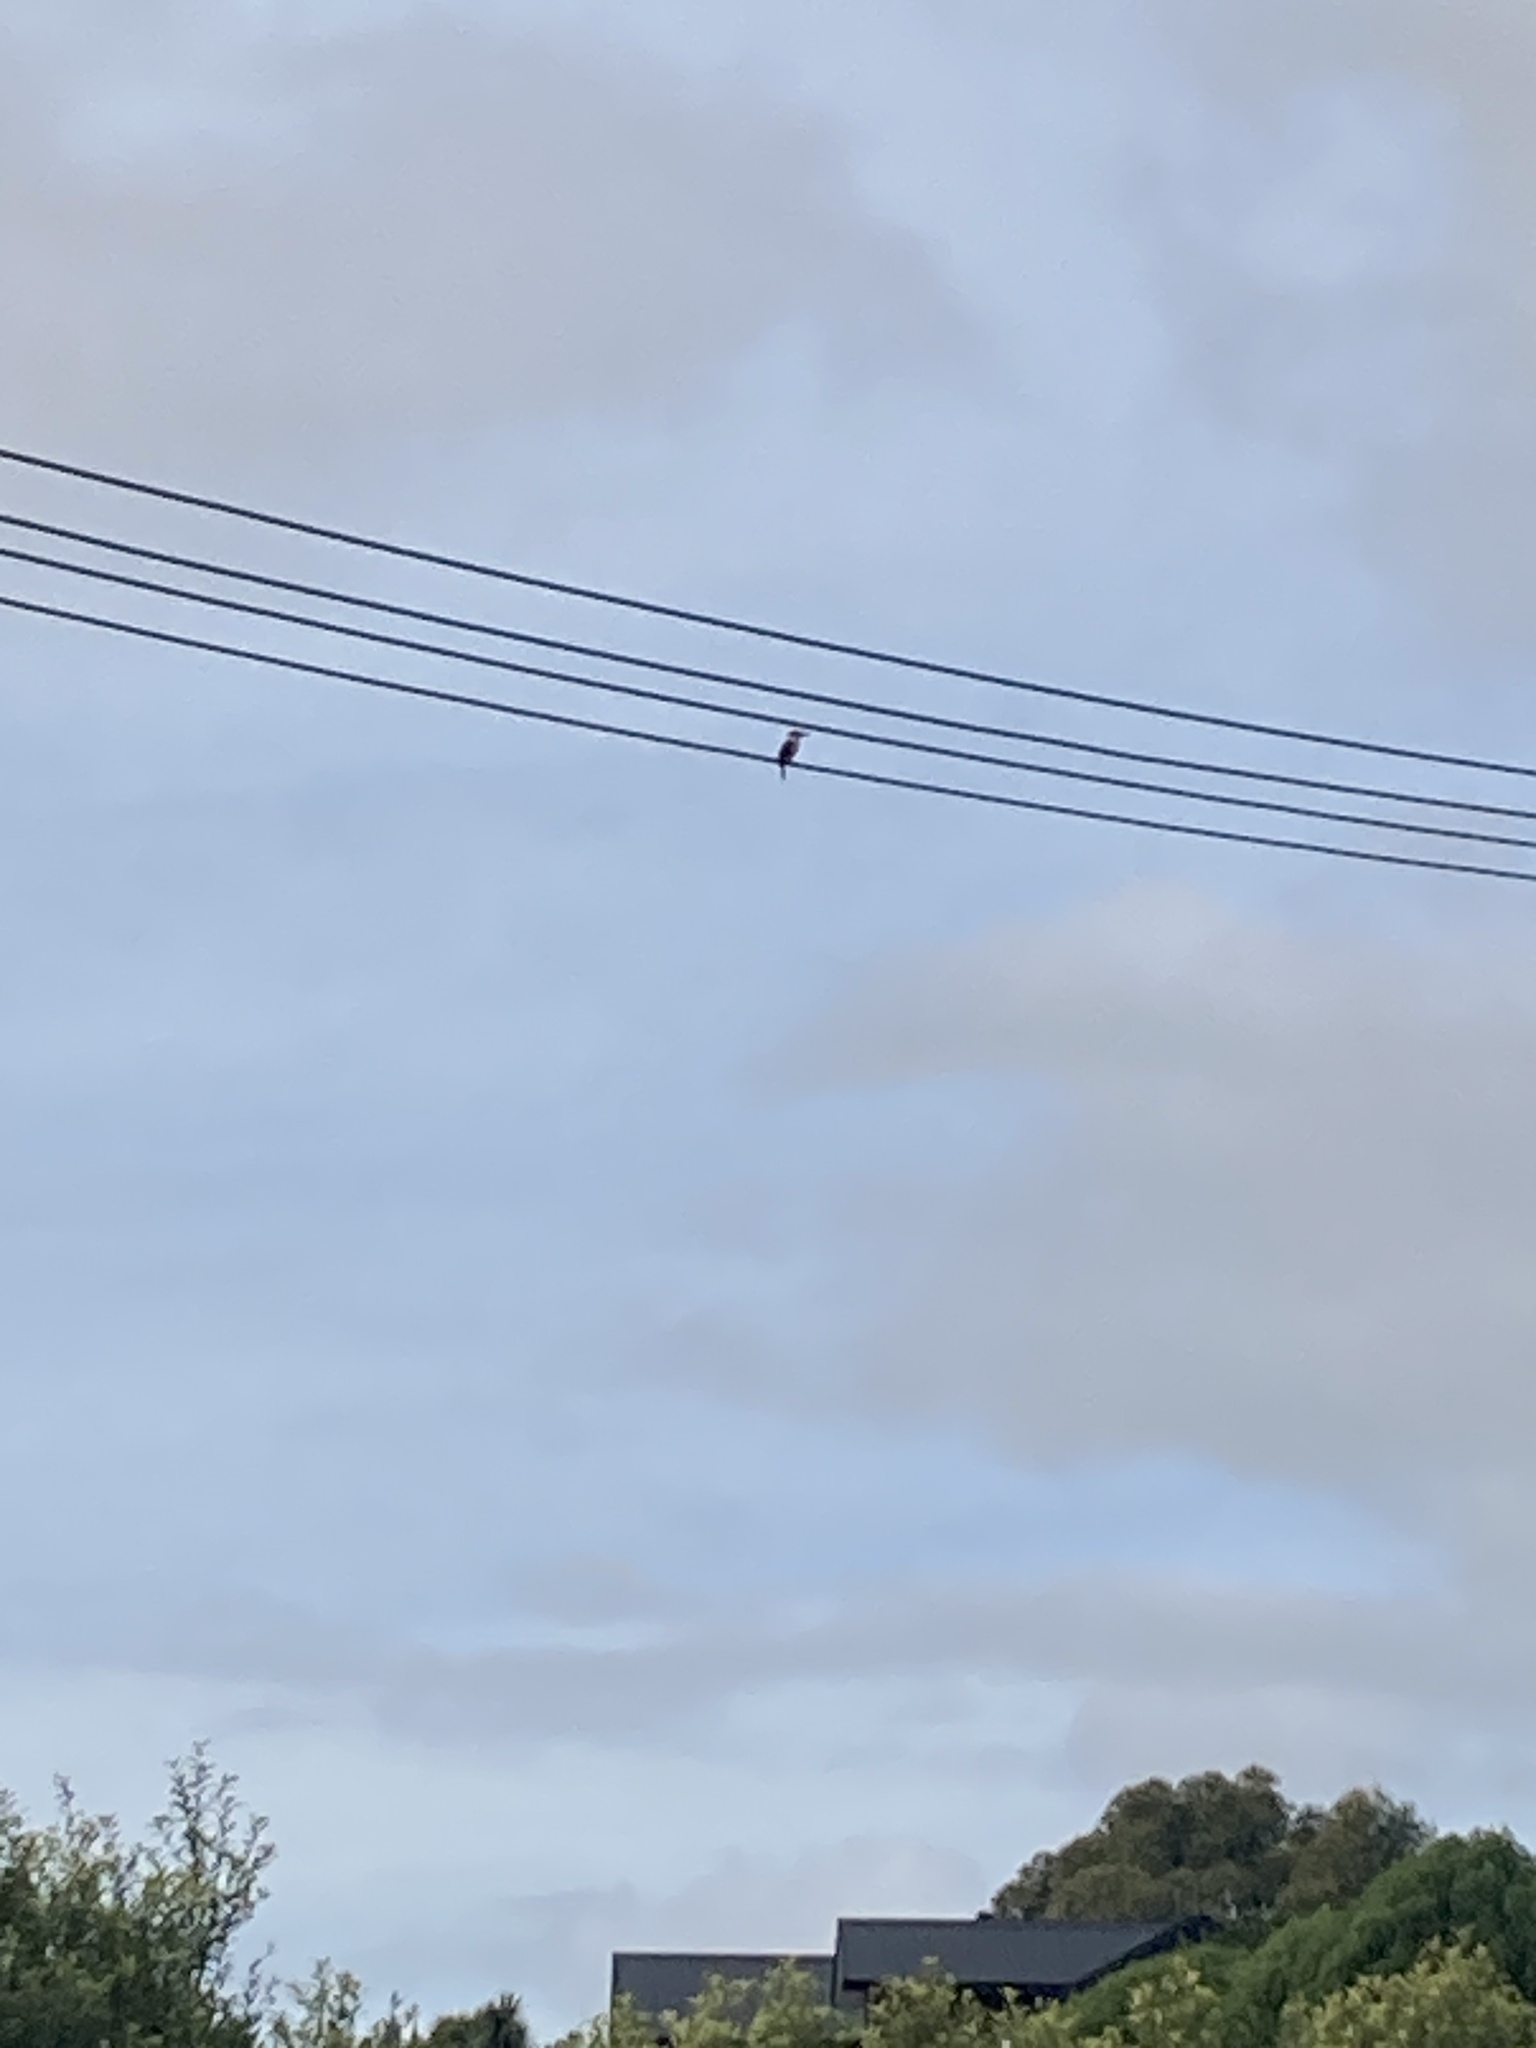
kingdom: Animalia
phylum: Chordata
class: Aves
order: Coraciiformes
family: Alcedinidae
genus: Todiramphus
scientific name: Todiramphus sanctus
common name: Sacred kingfisher
